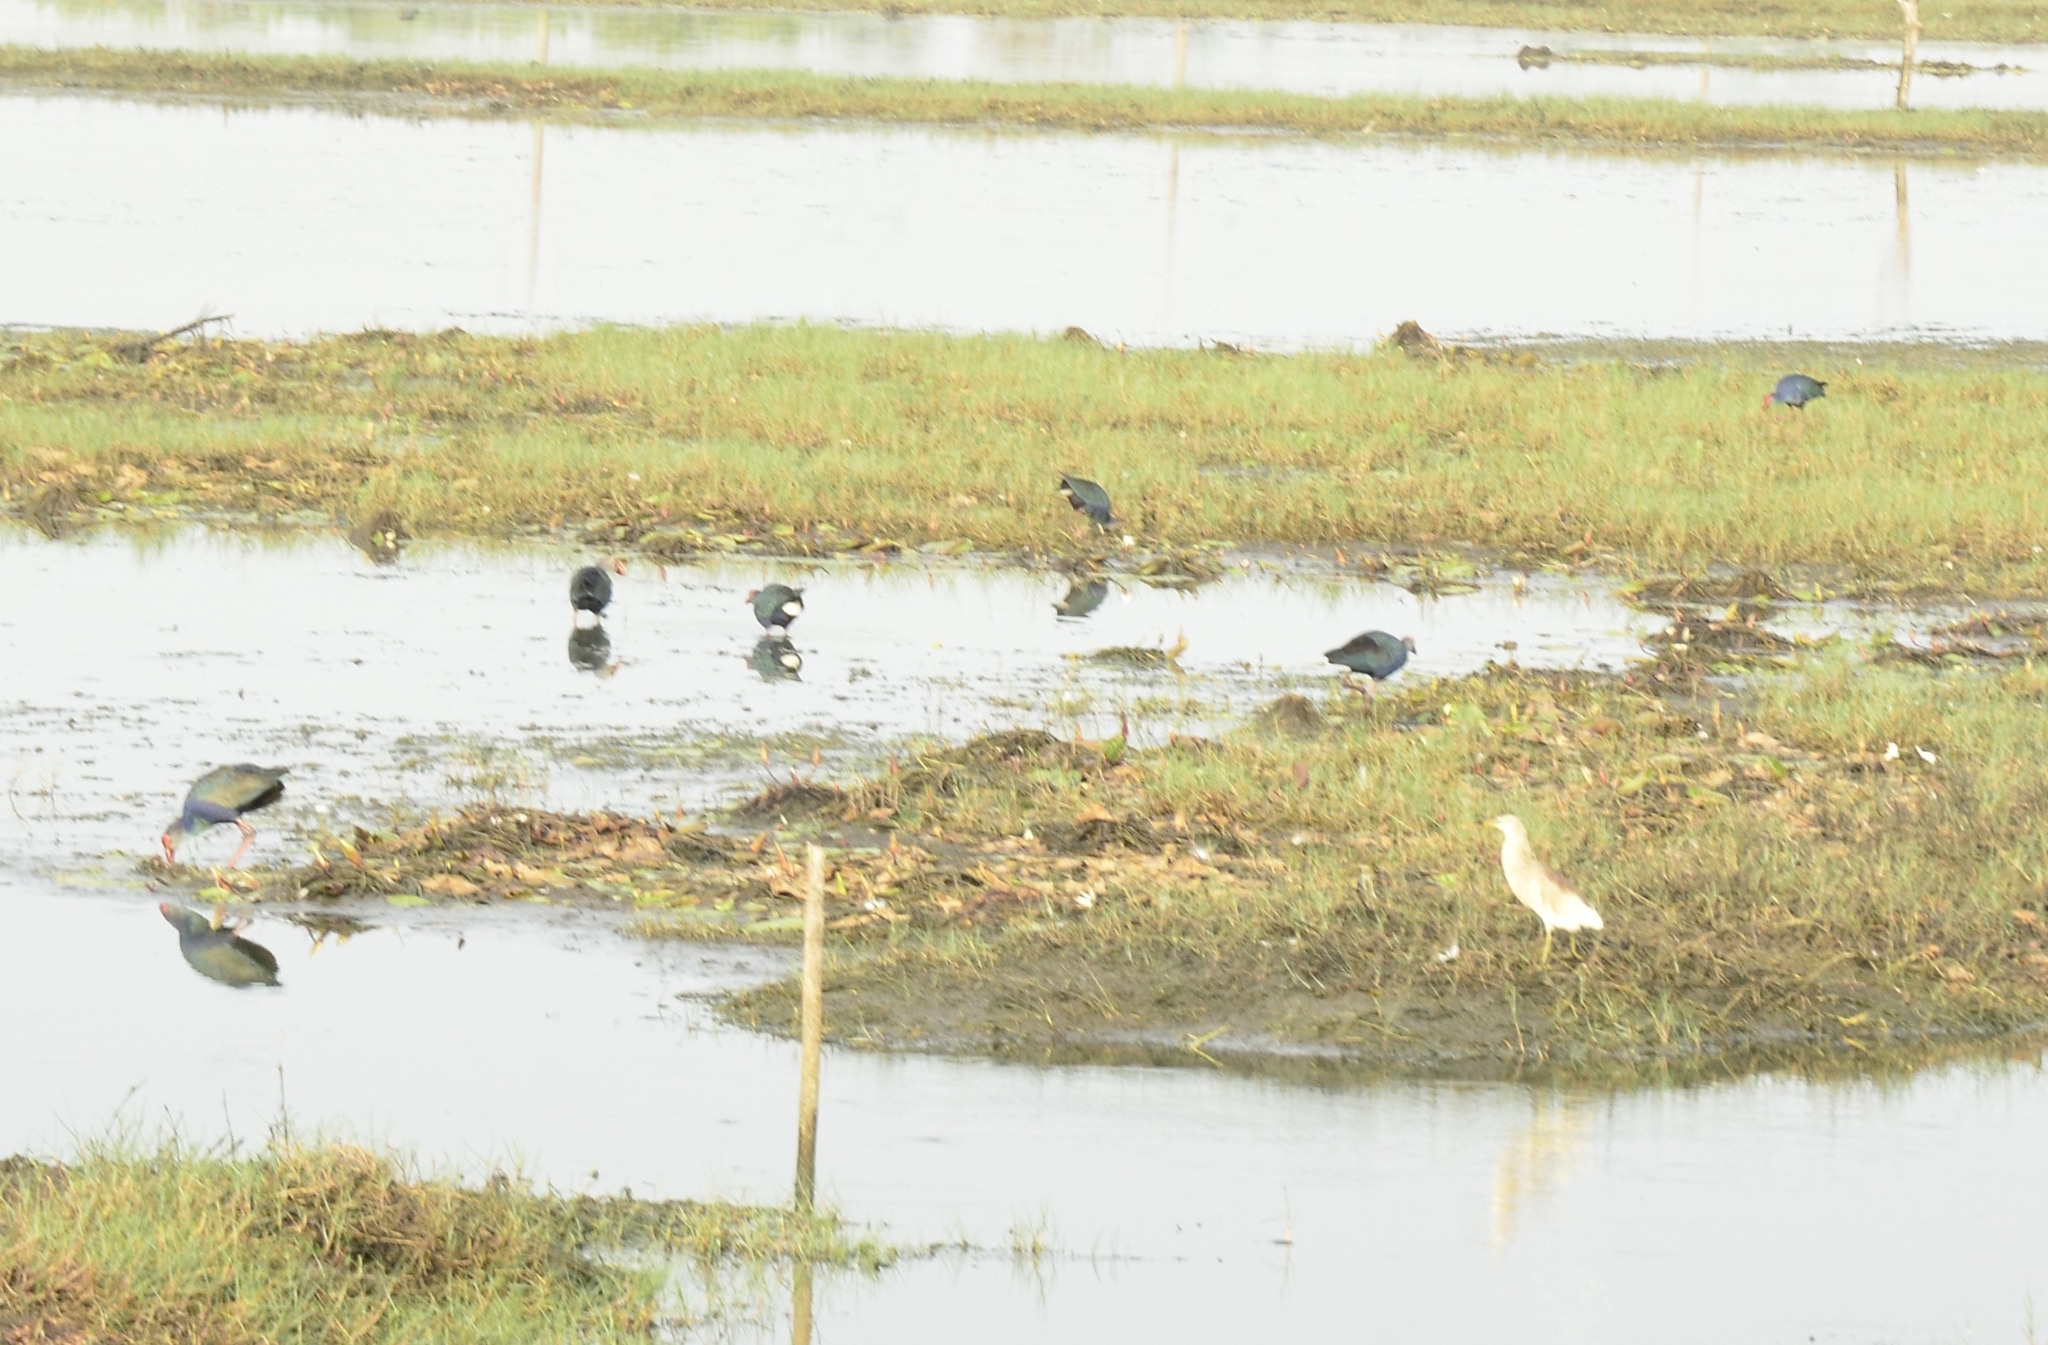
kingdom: Animalia
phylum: Chordata
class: Aves
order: Gruiformes
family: Rallidae
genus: Porphyrio
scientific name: Porphyrio porphyrio
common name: Purple swamphen
